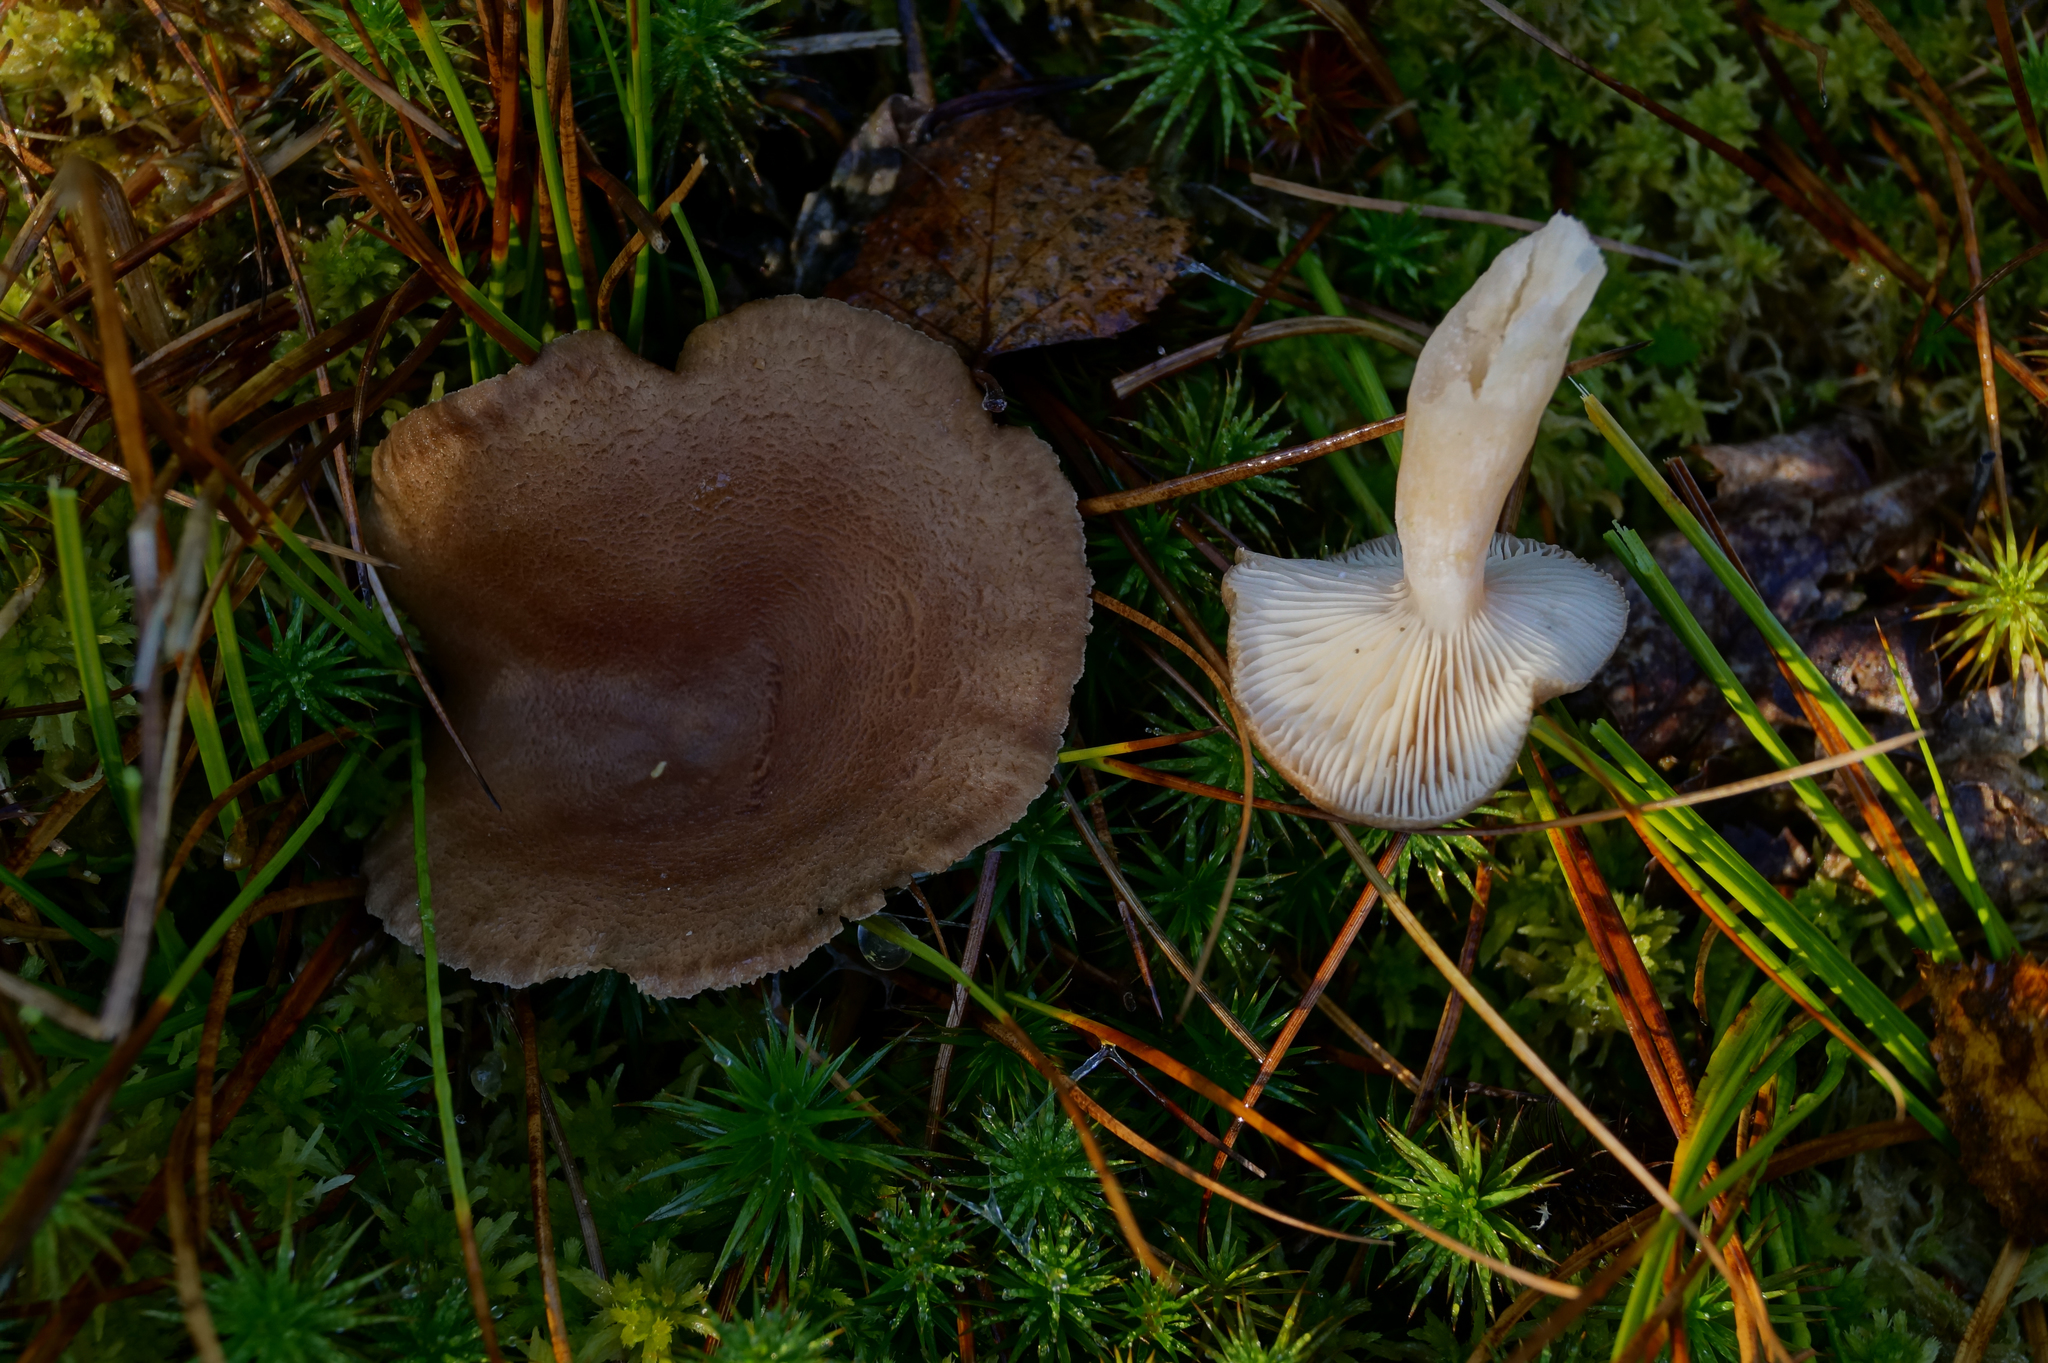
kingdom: Fungi
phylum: Basidiomycota
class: Agaricomycetes
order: Russulales
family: Russulaceae
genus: Lactarius
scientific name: Lactarius mammosus
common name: Pap milkcap
